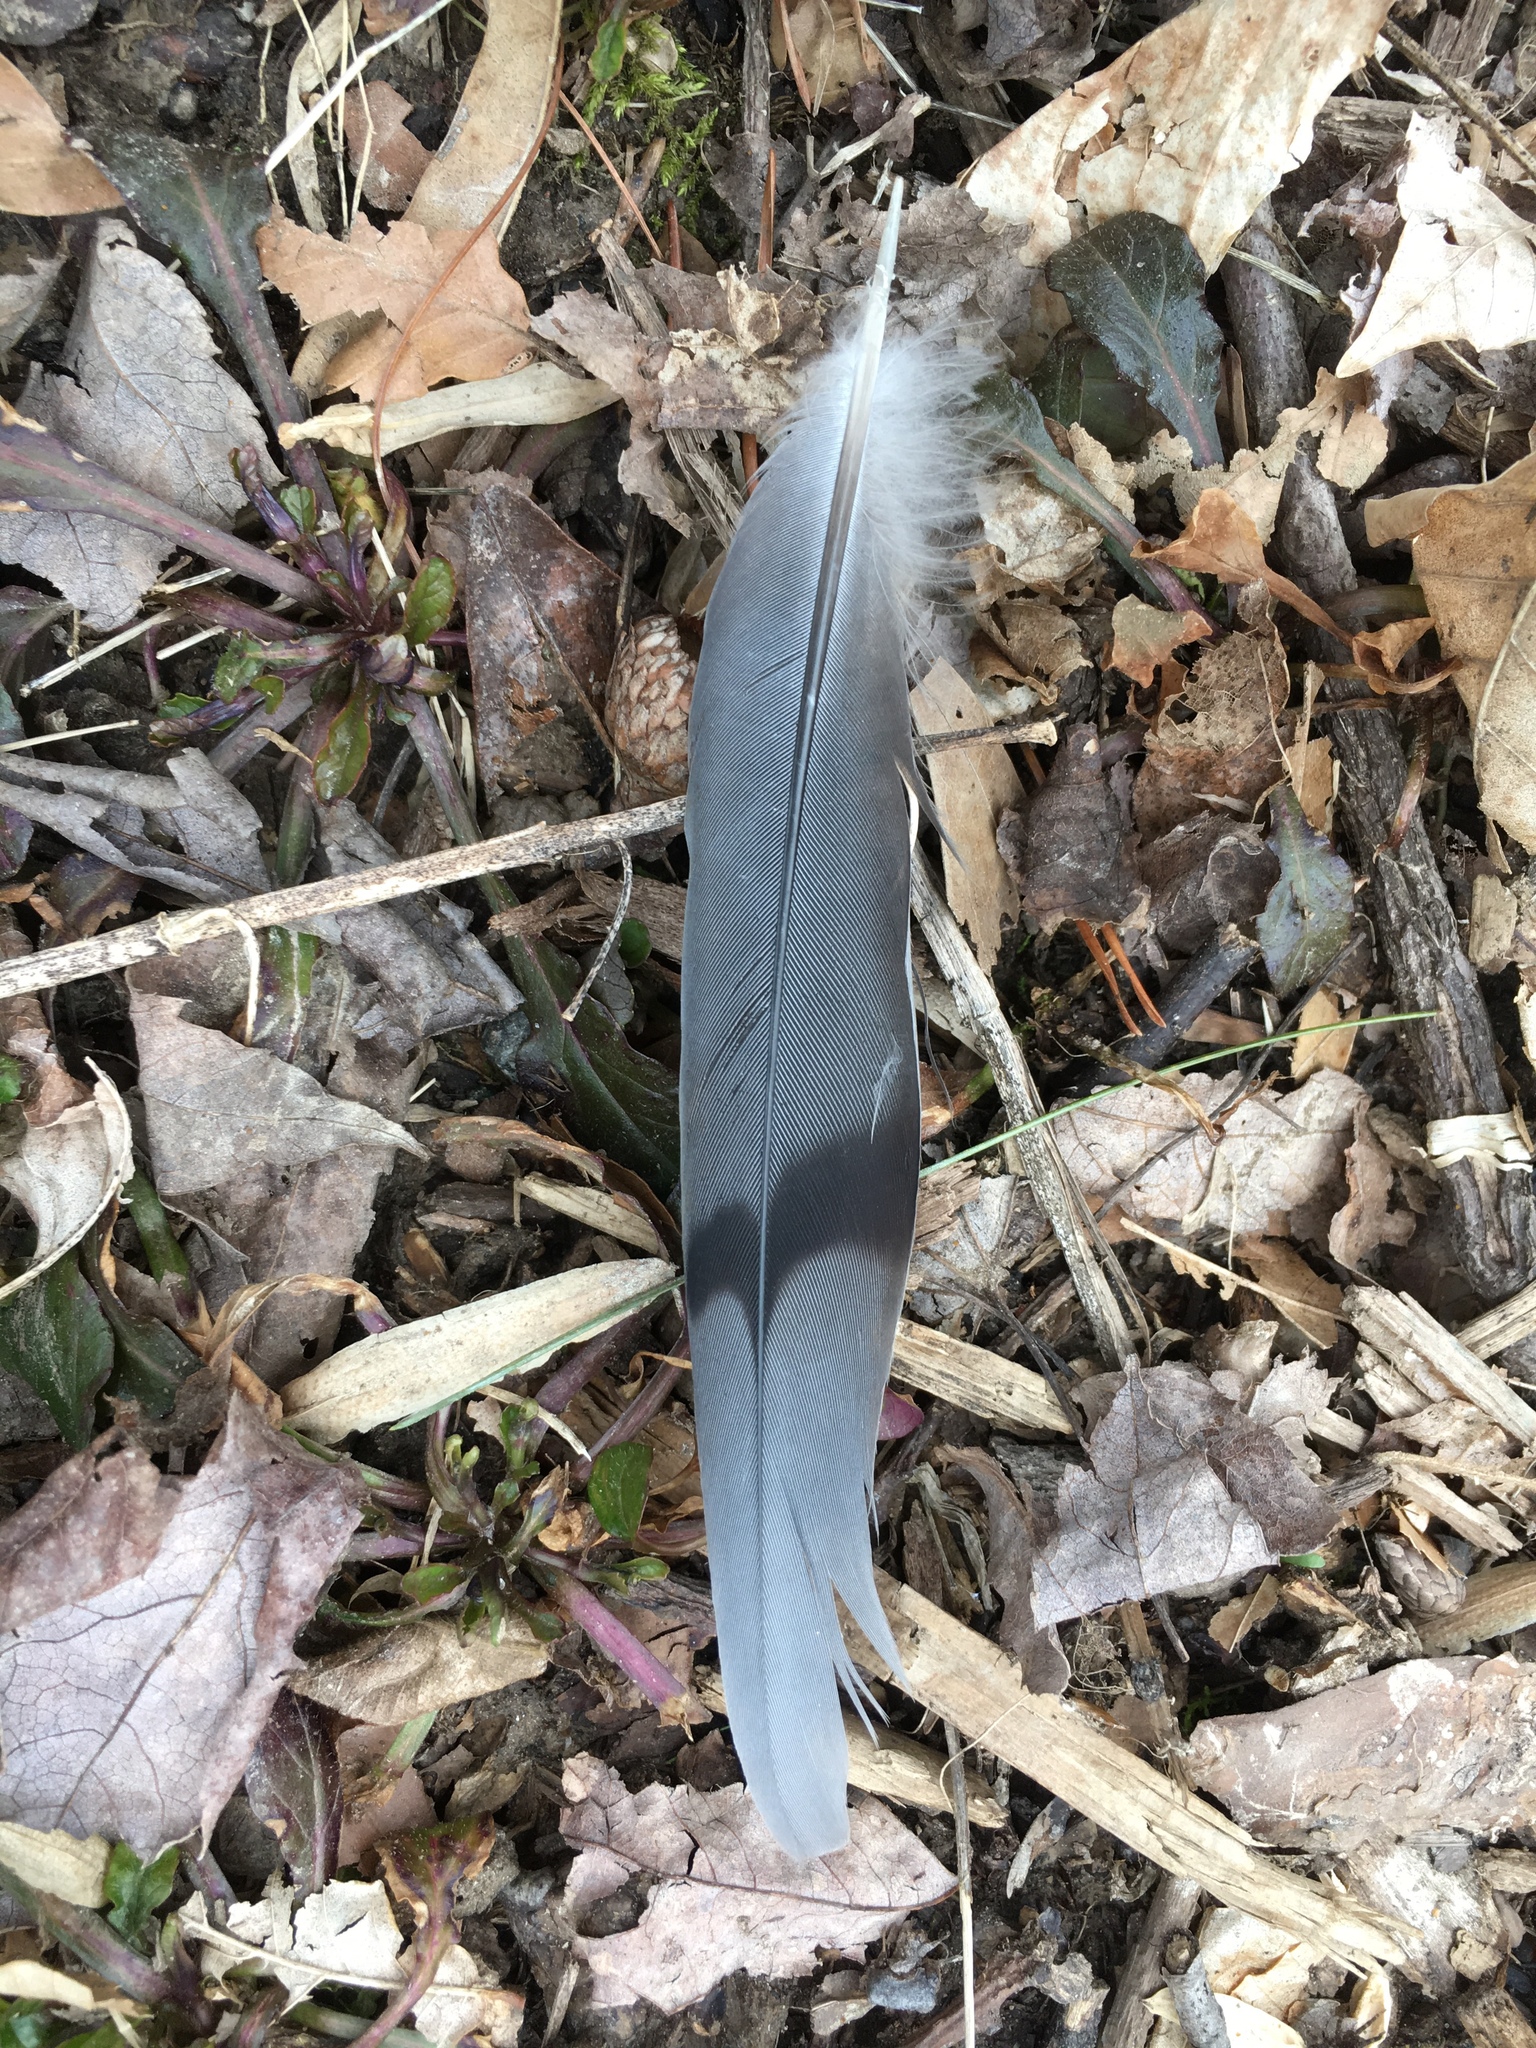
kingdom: Animalia
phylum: Chordata
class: Aves
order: Columbiformes
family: Columbidae
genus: Zenaida
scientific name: Zenaida macroura
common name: Mourning dove
